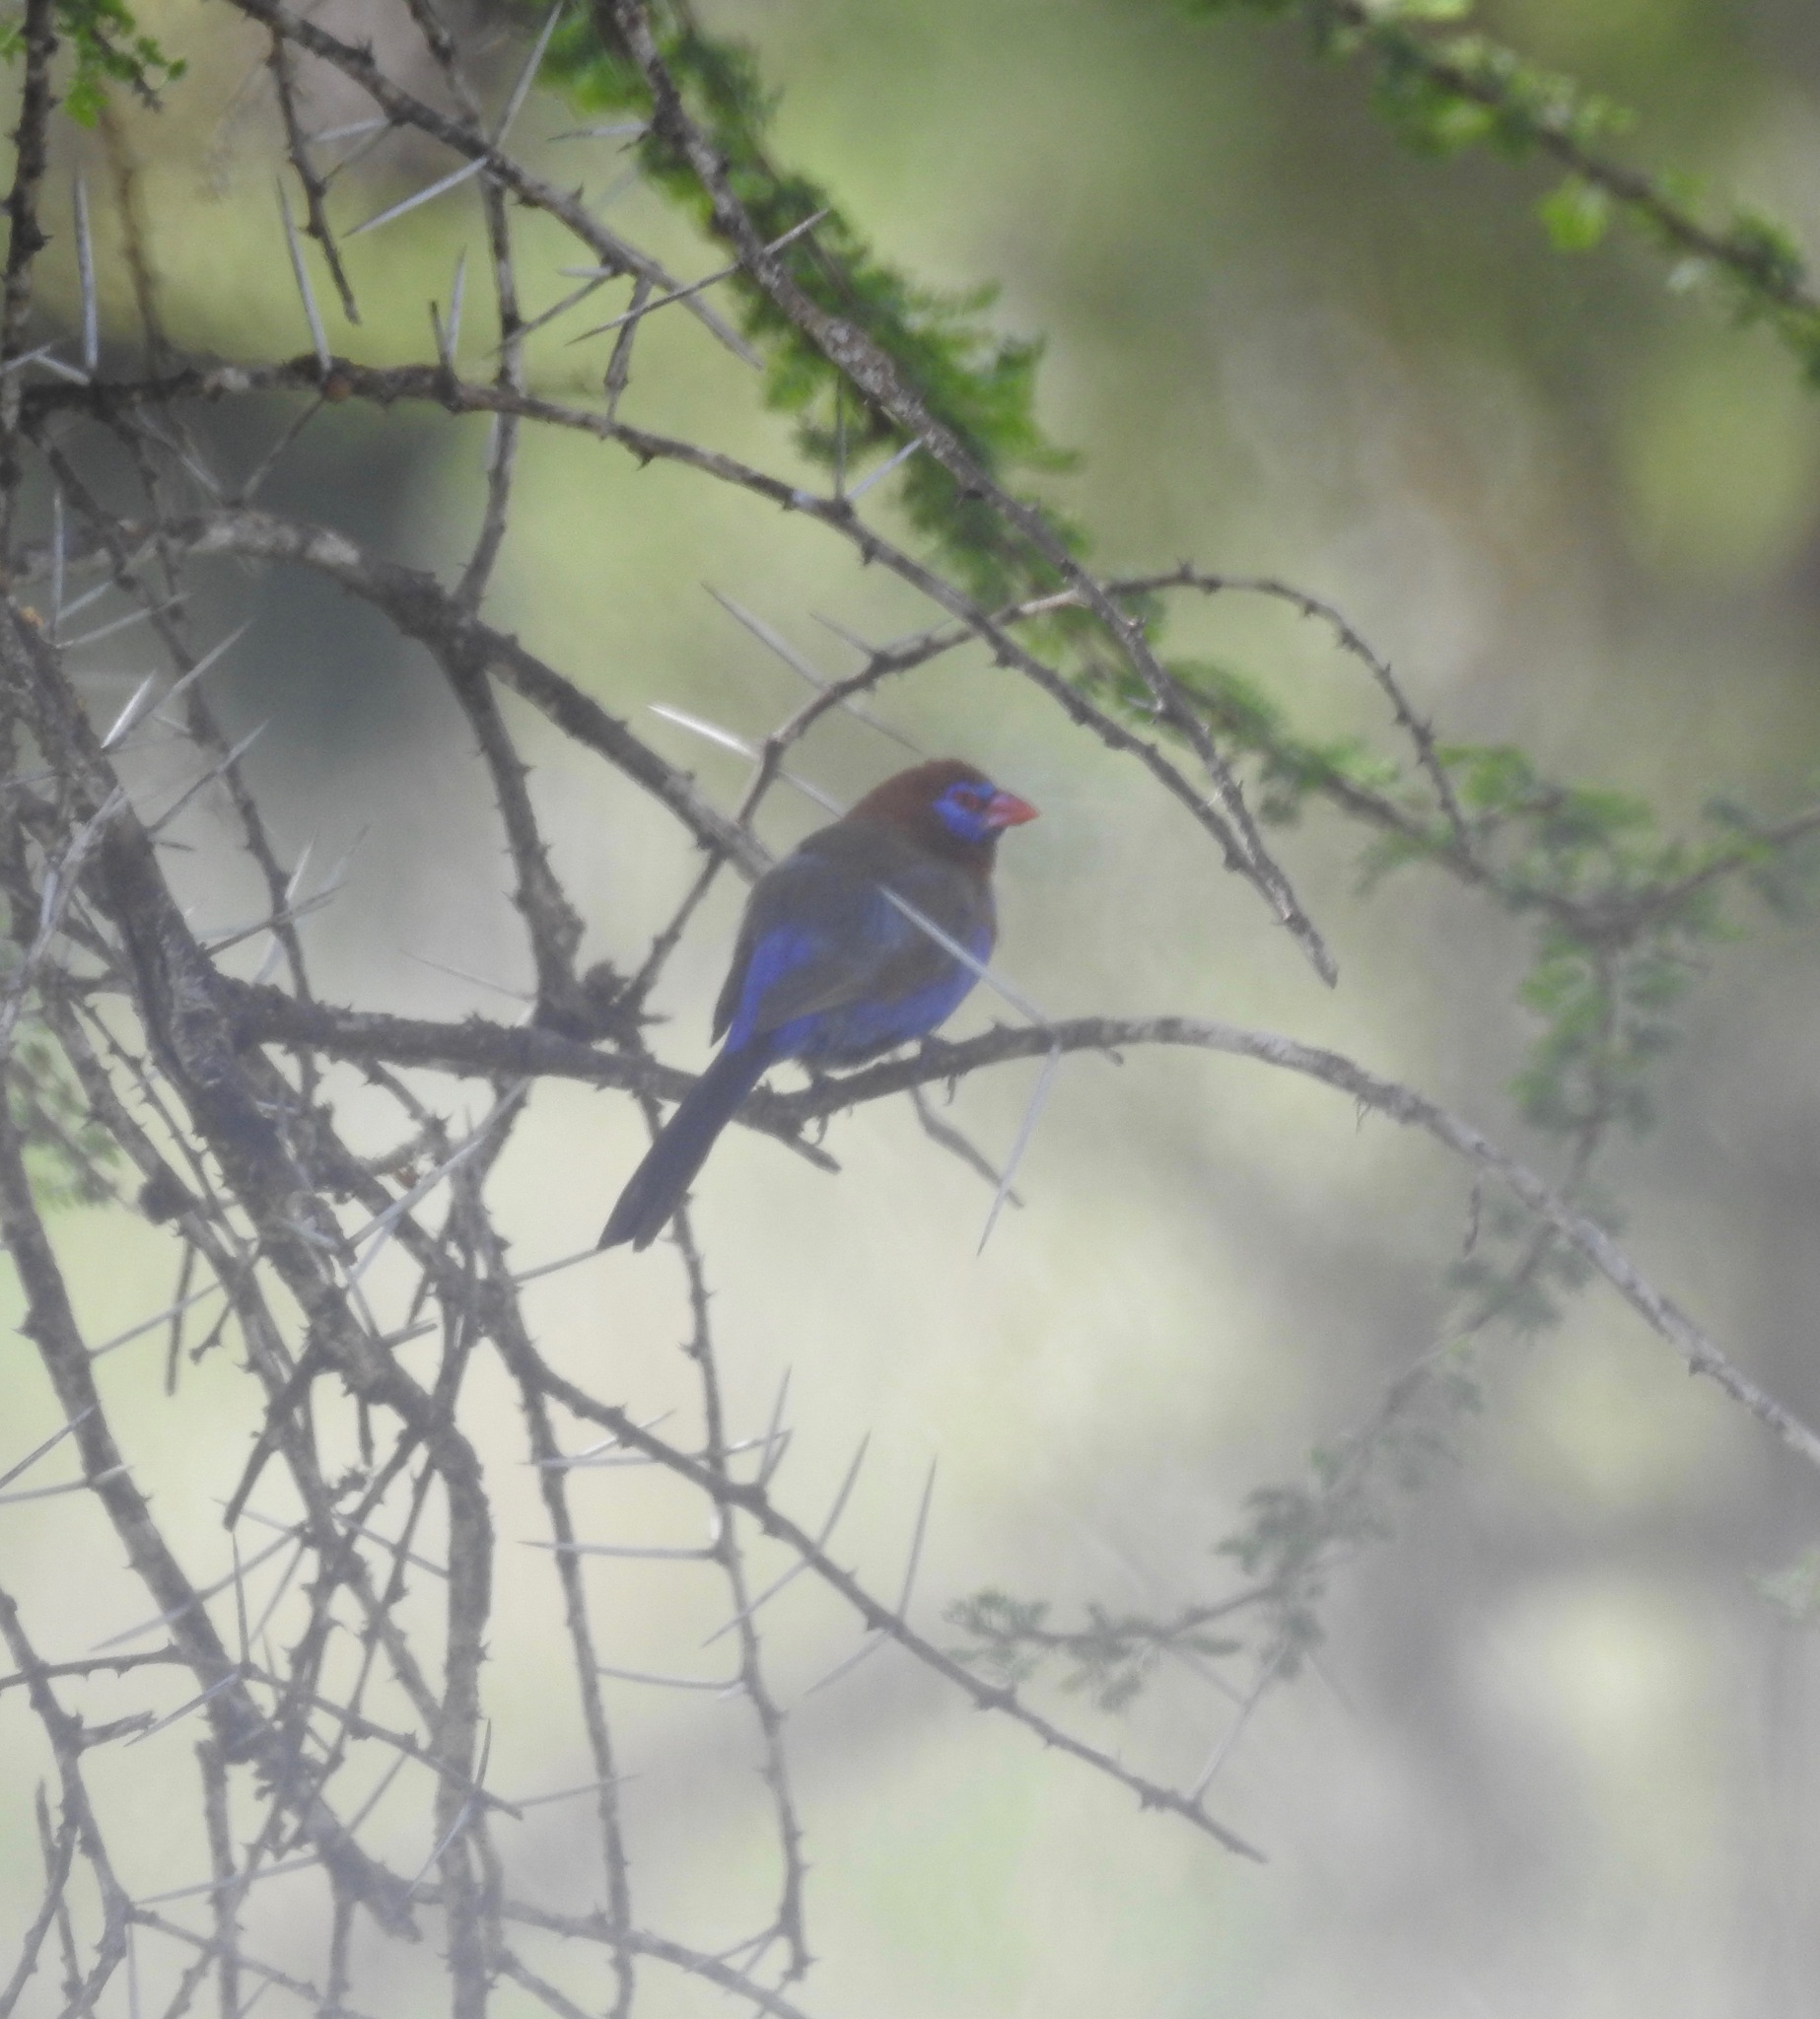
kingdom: Animalia
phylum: Chordata
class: Aves
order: Passeriformes
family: Estrildidae
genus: Uraeginthus
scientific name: Uraeginthus ianthinogaster
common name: Purple grenadier
